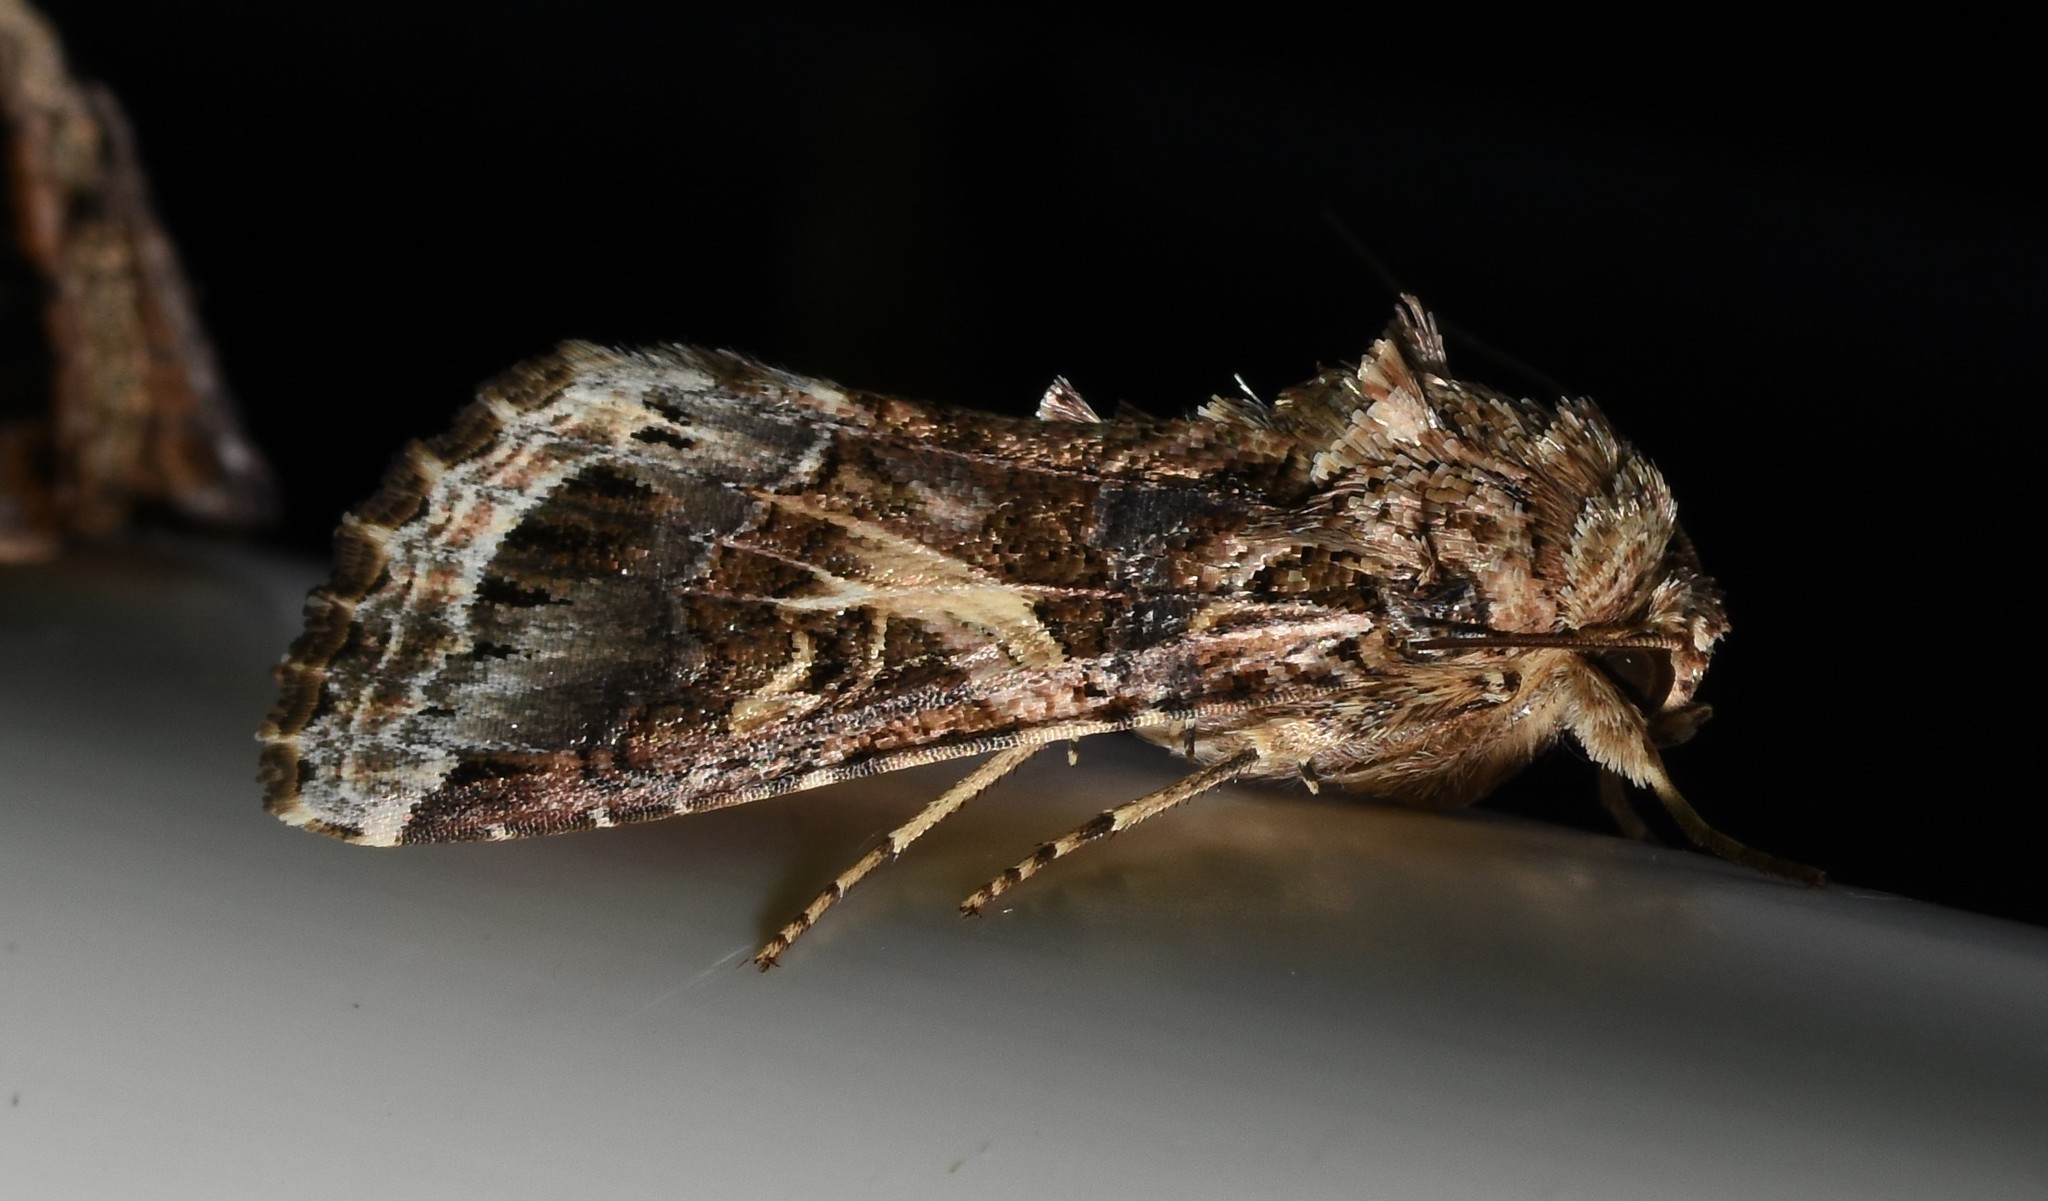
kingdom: Animalia
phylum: Arthropoda
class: Insecta
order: Lepidoptera
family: Noctuidae
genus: Spodoptera
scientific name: Spodoptera ornithogalli
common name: Yellow-striped armyworm
